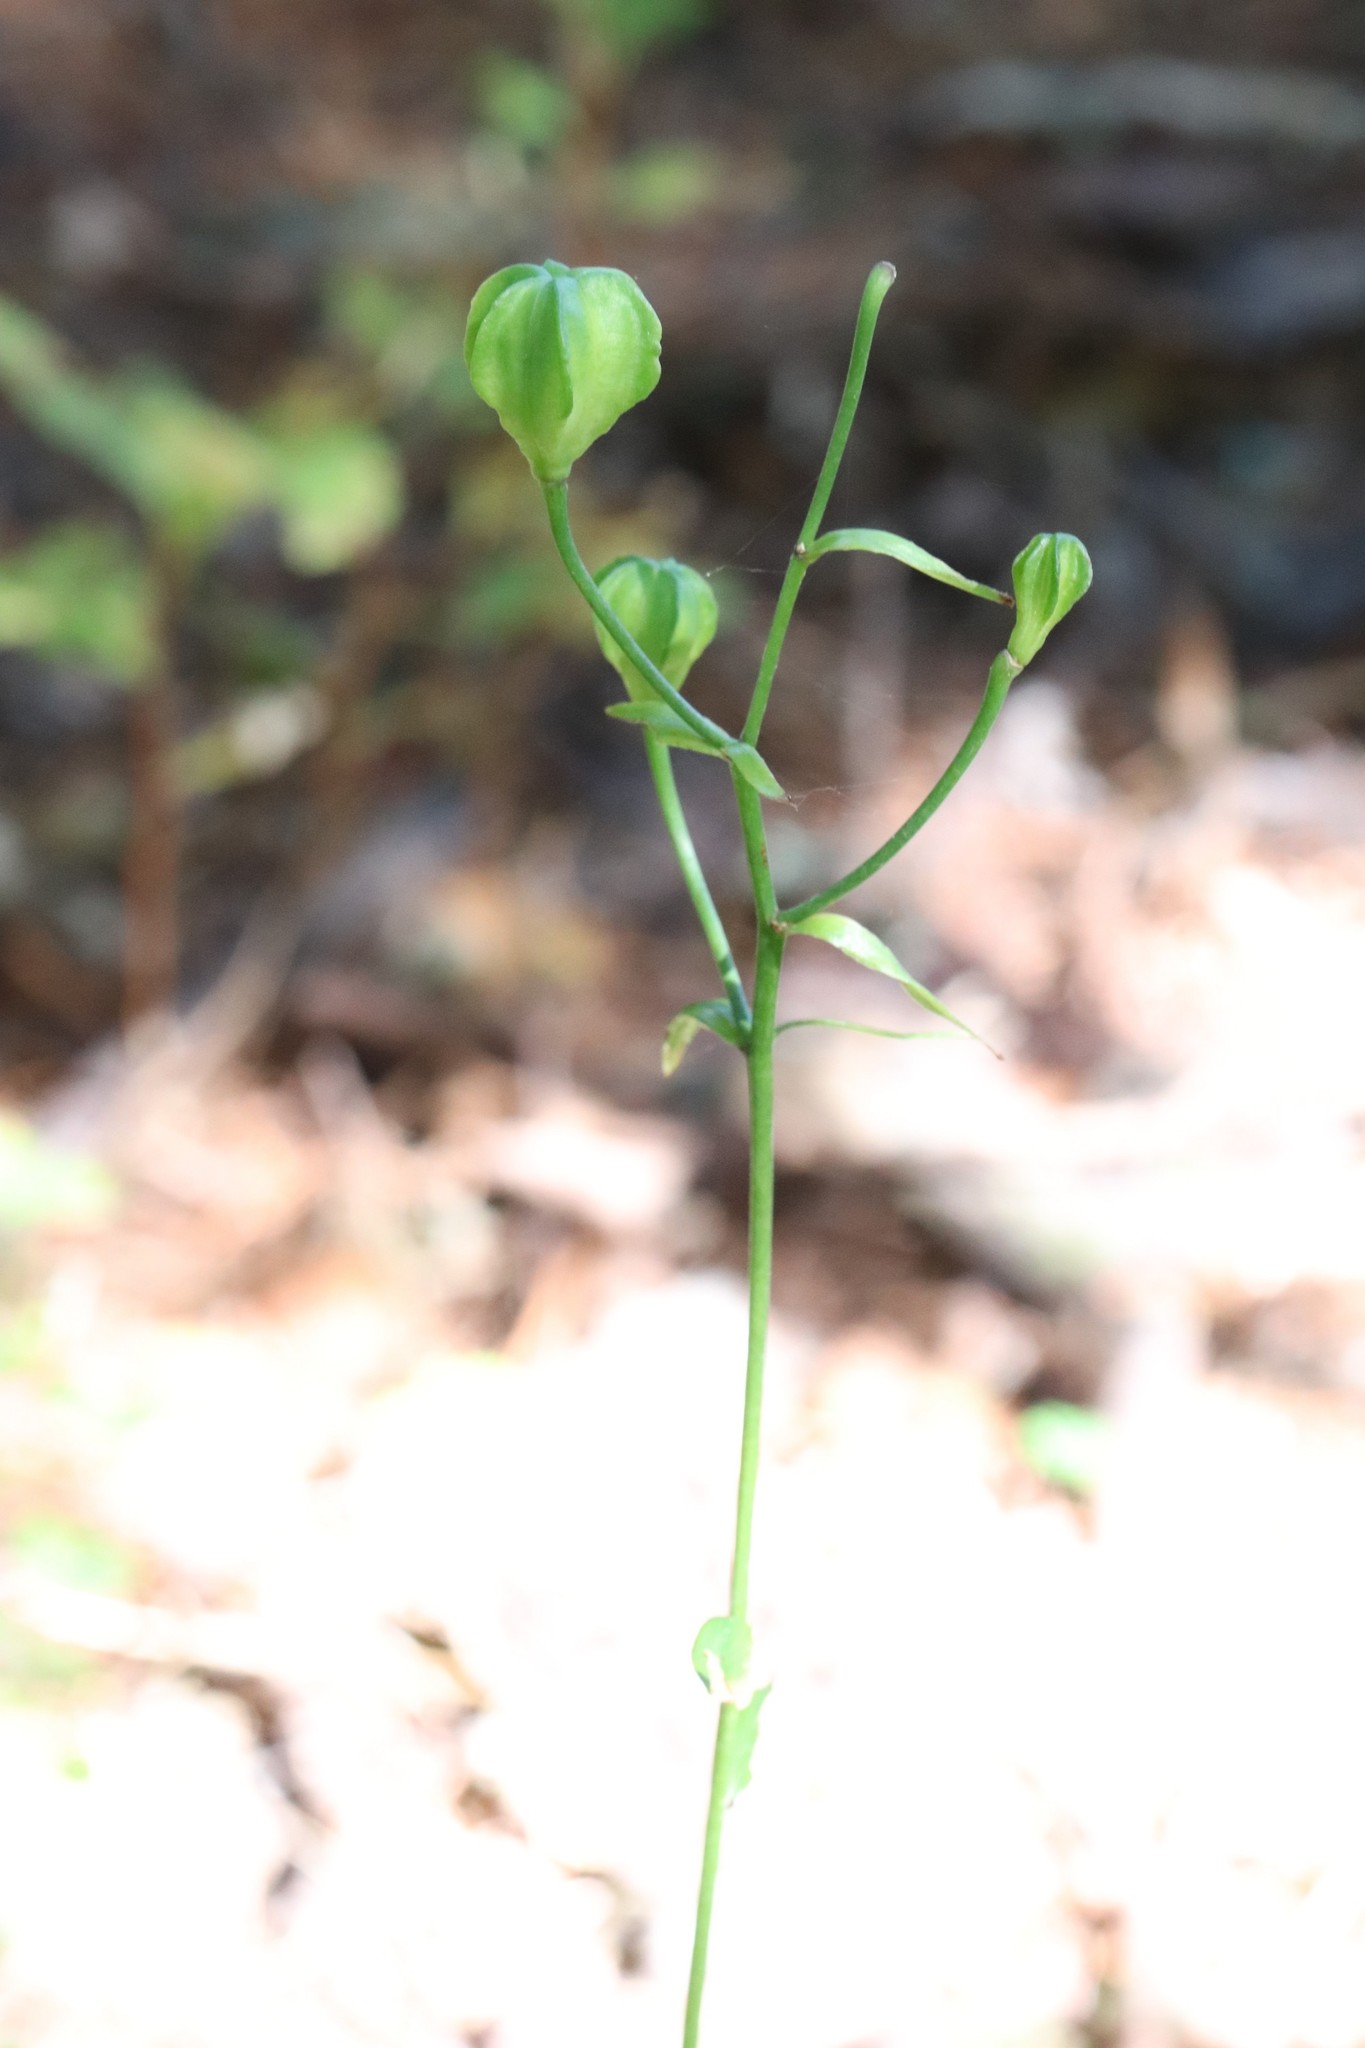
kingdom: Plantae
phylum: Tracheophyta
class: Liliopsida
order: Liliales
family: Liliaceae
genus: Lilium
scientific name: Lilium distichum
